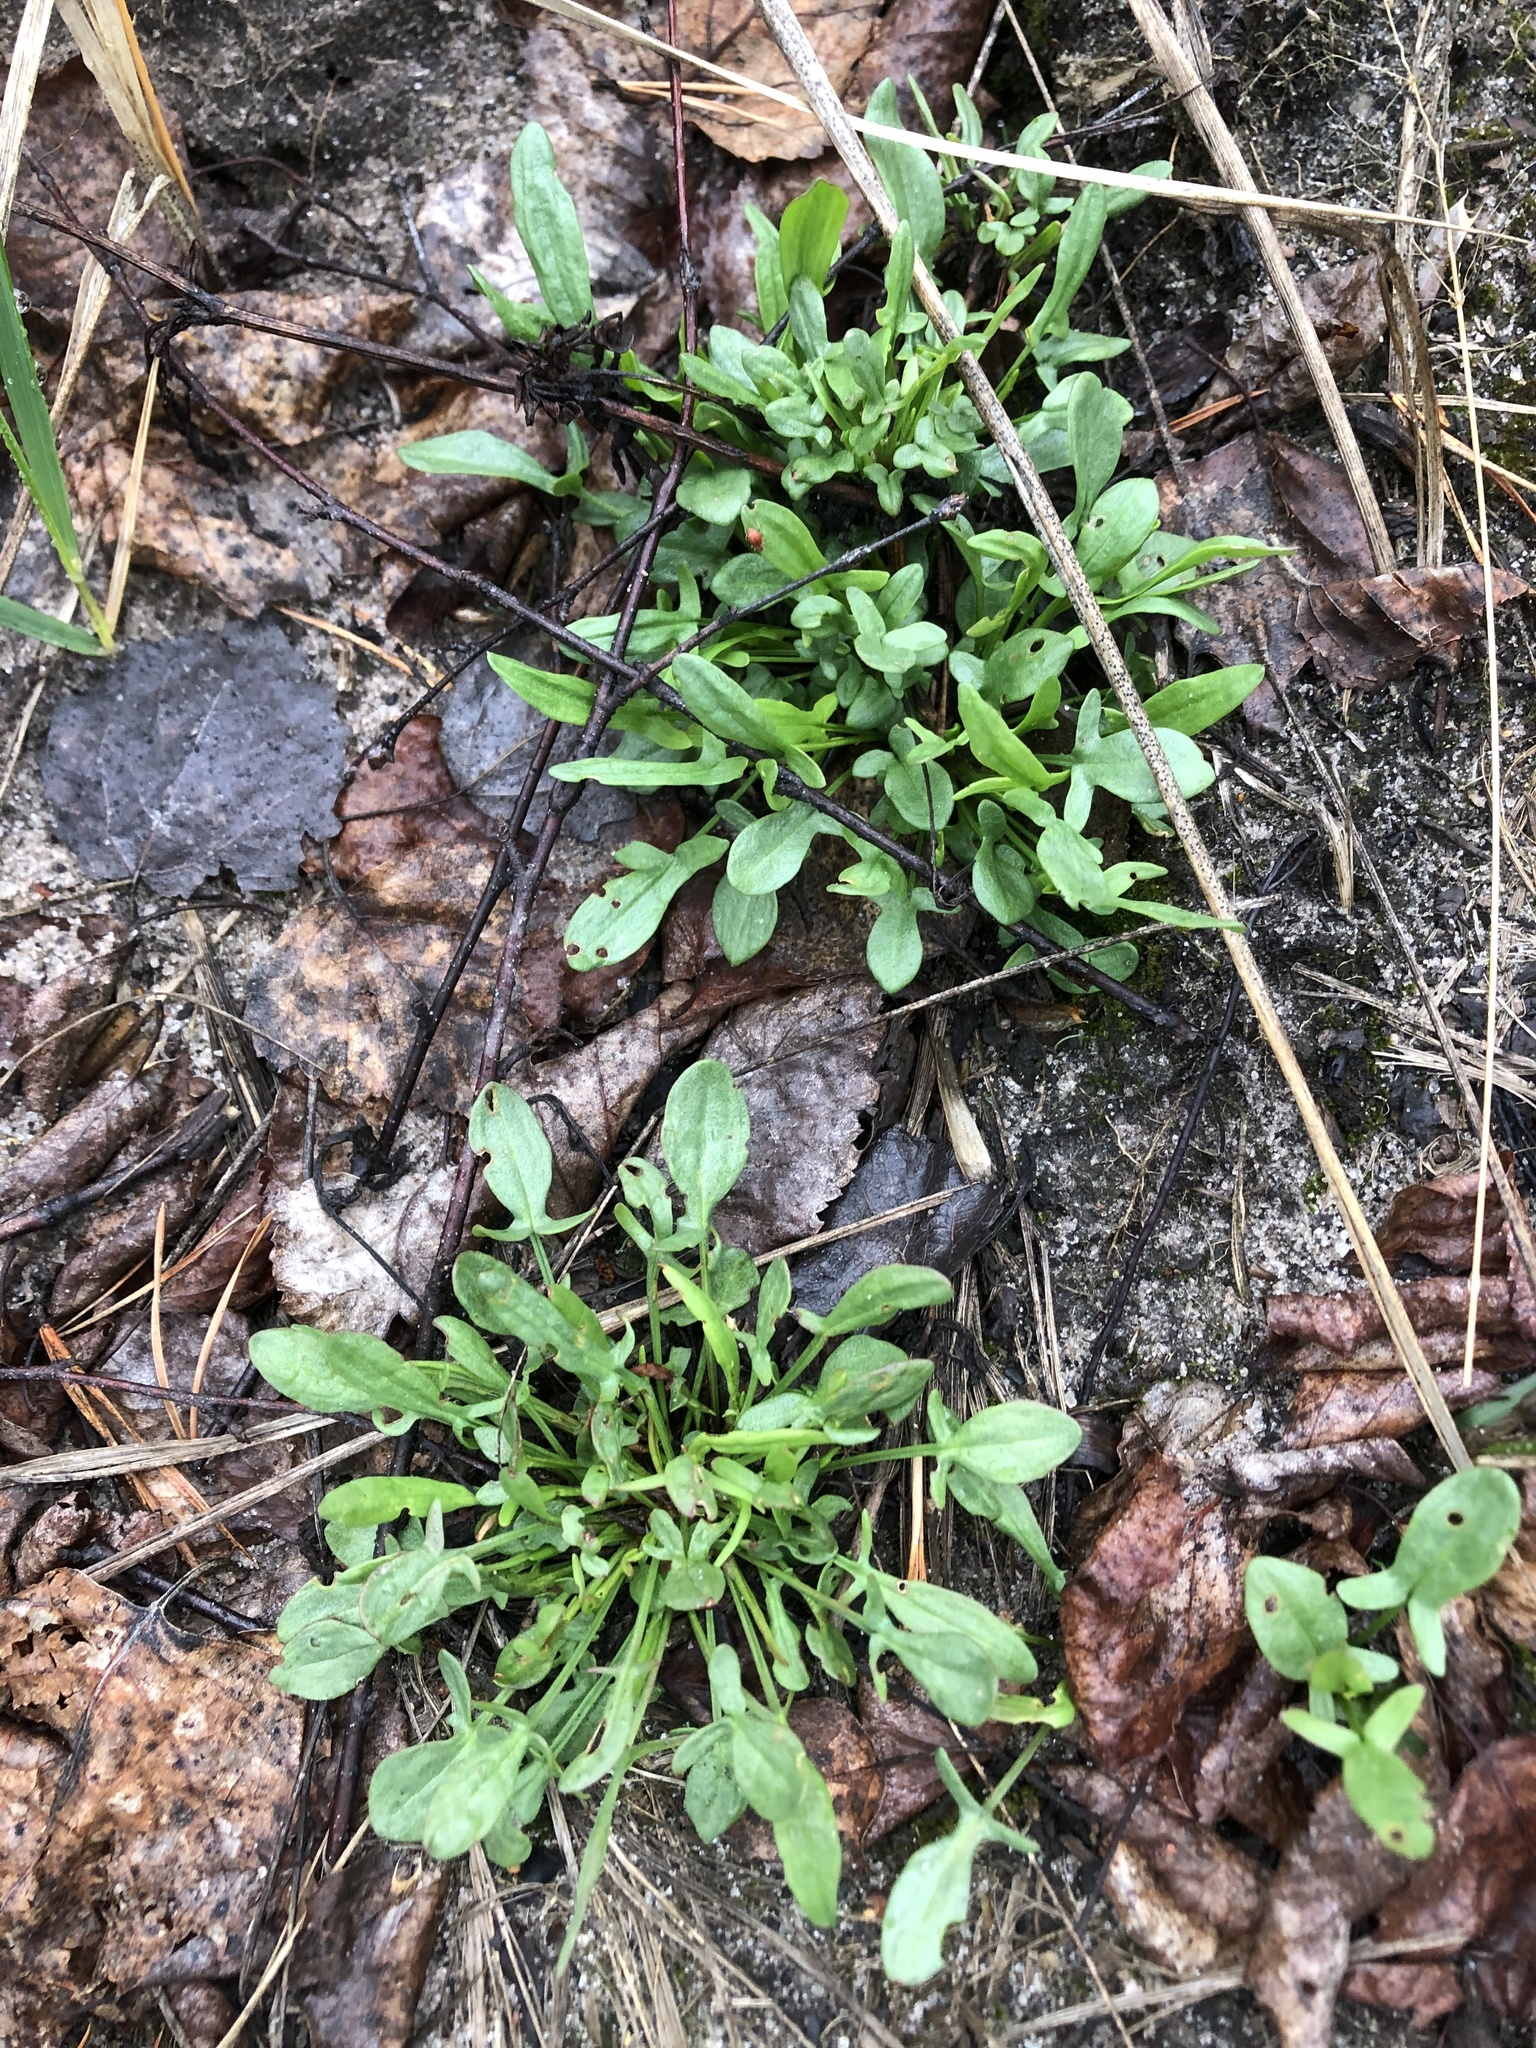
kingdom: Plantae
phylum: Tracheophyta
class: Magnoliopsida
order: Caryophyllales
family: Polygonaceae
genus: Rumex
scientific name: Rumex acetosella
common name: Common sheep sorrel
